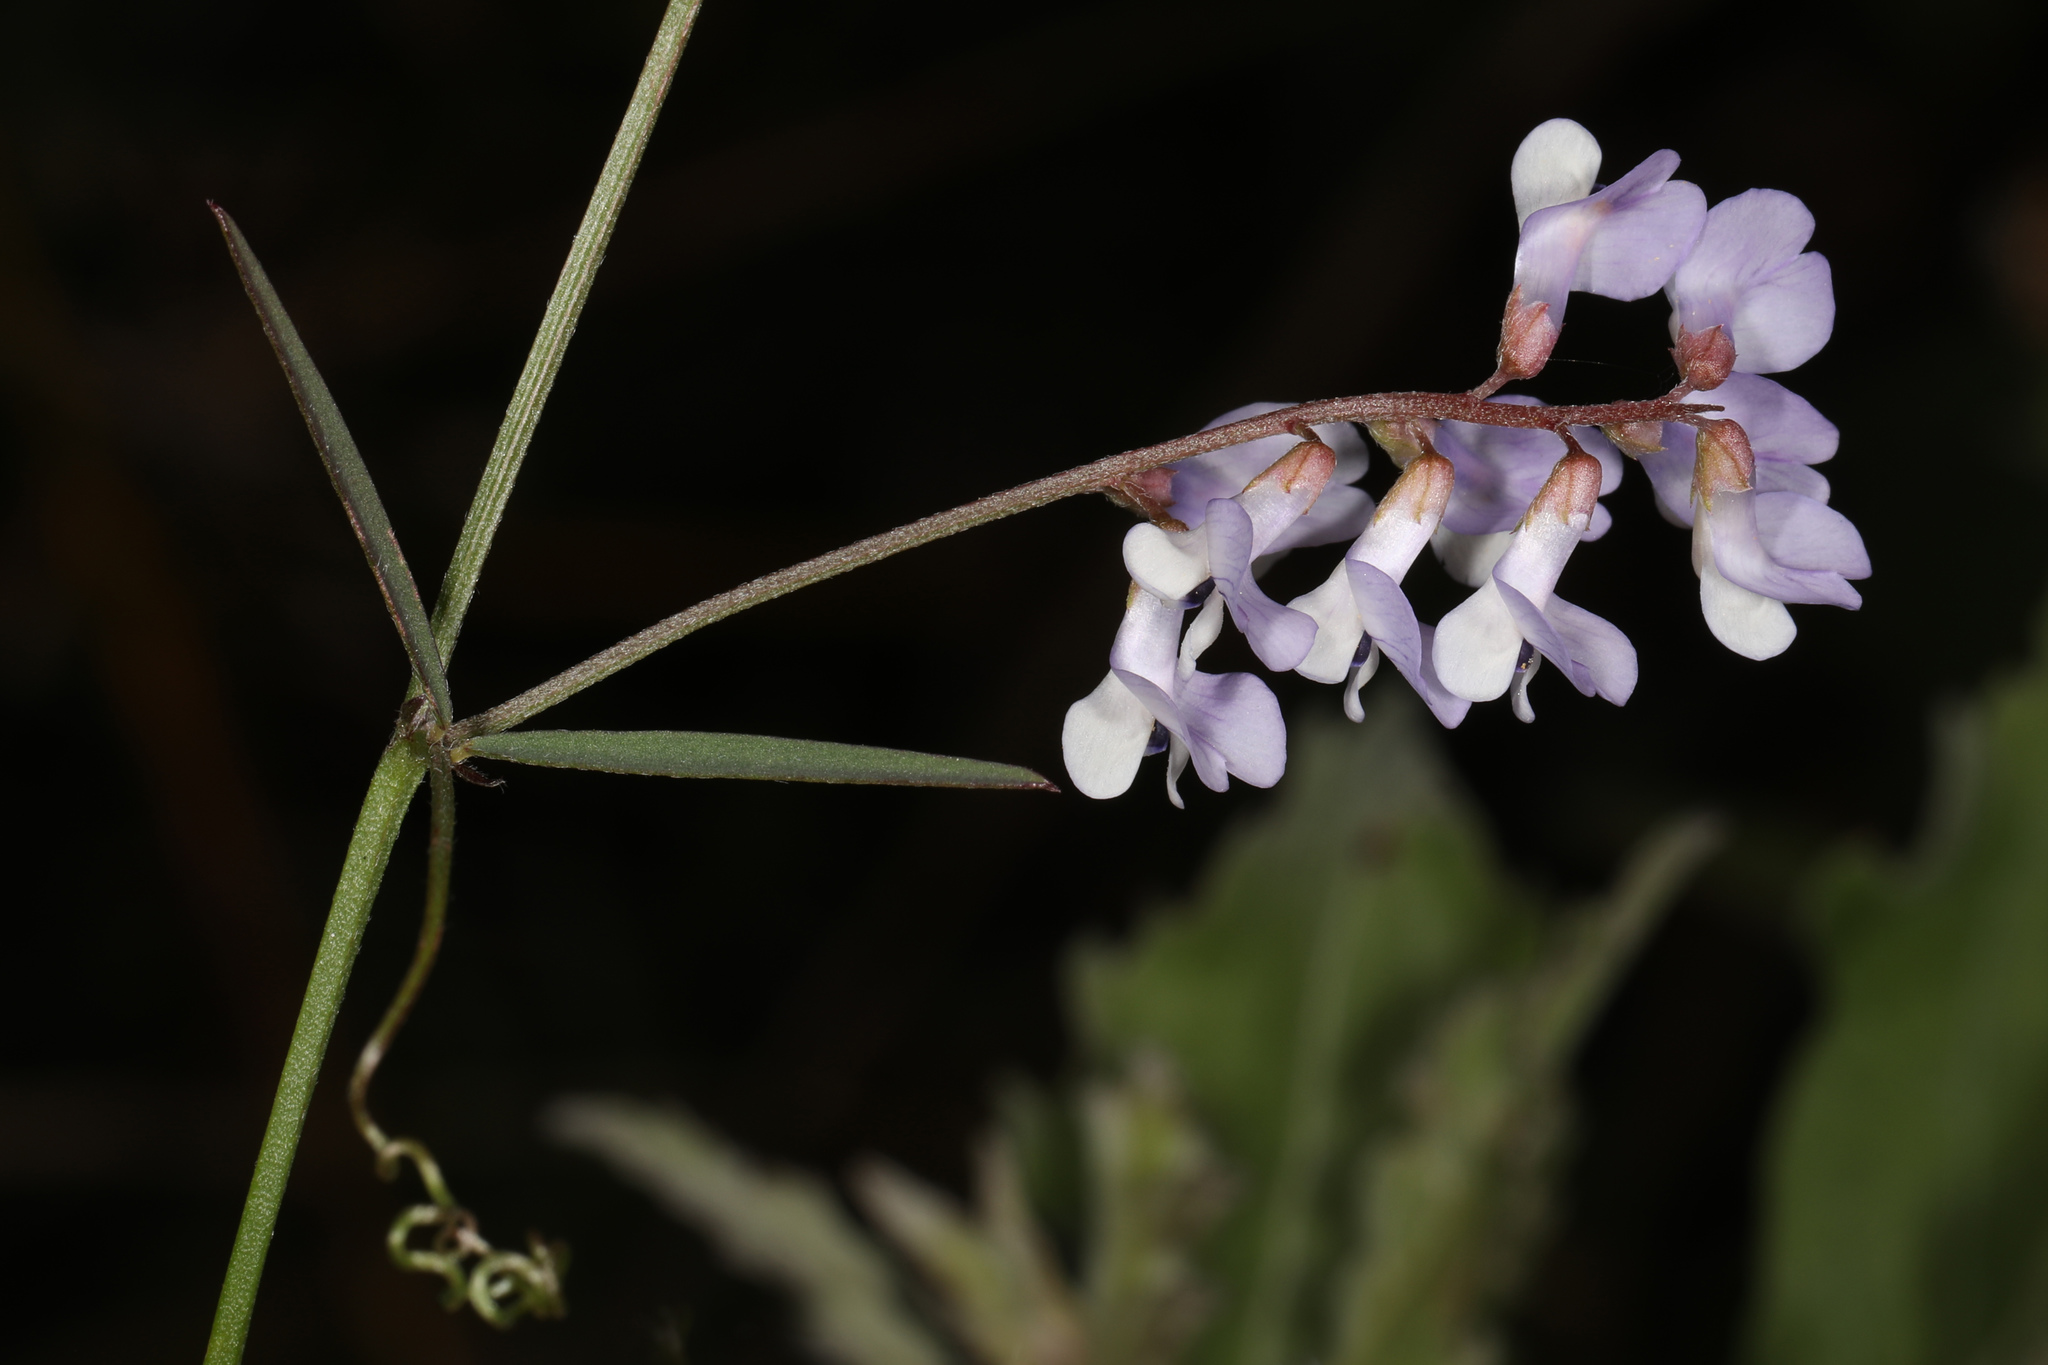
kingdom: Plantae
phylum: Tracheophyta
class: Magnoliopsida
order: Fabales
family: Fabaceae
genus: Vicia
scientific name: Vicia acutifolia
